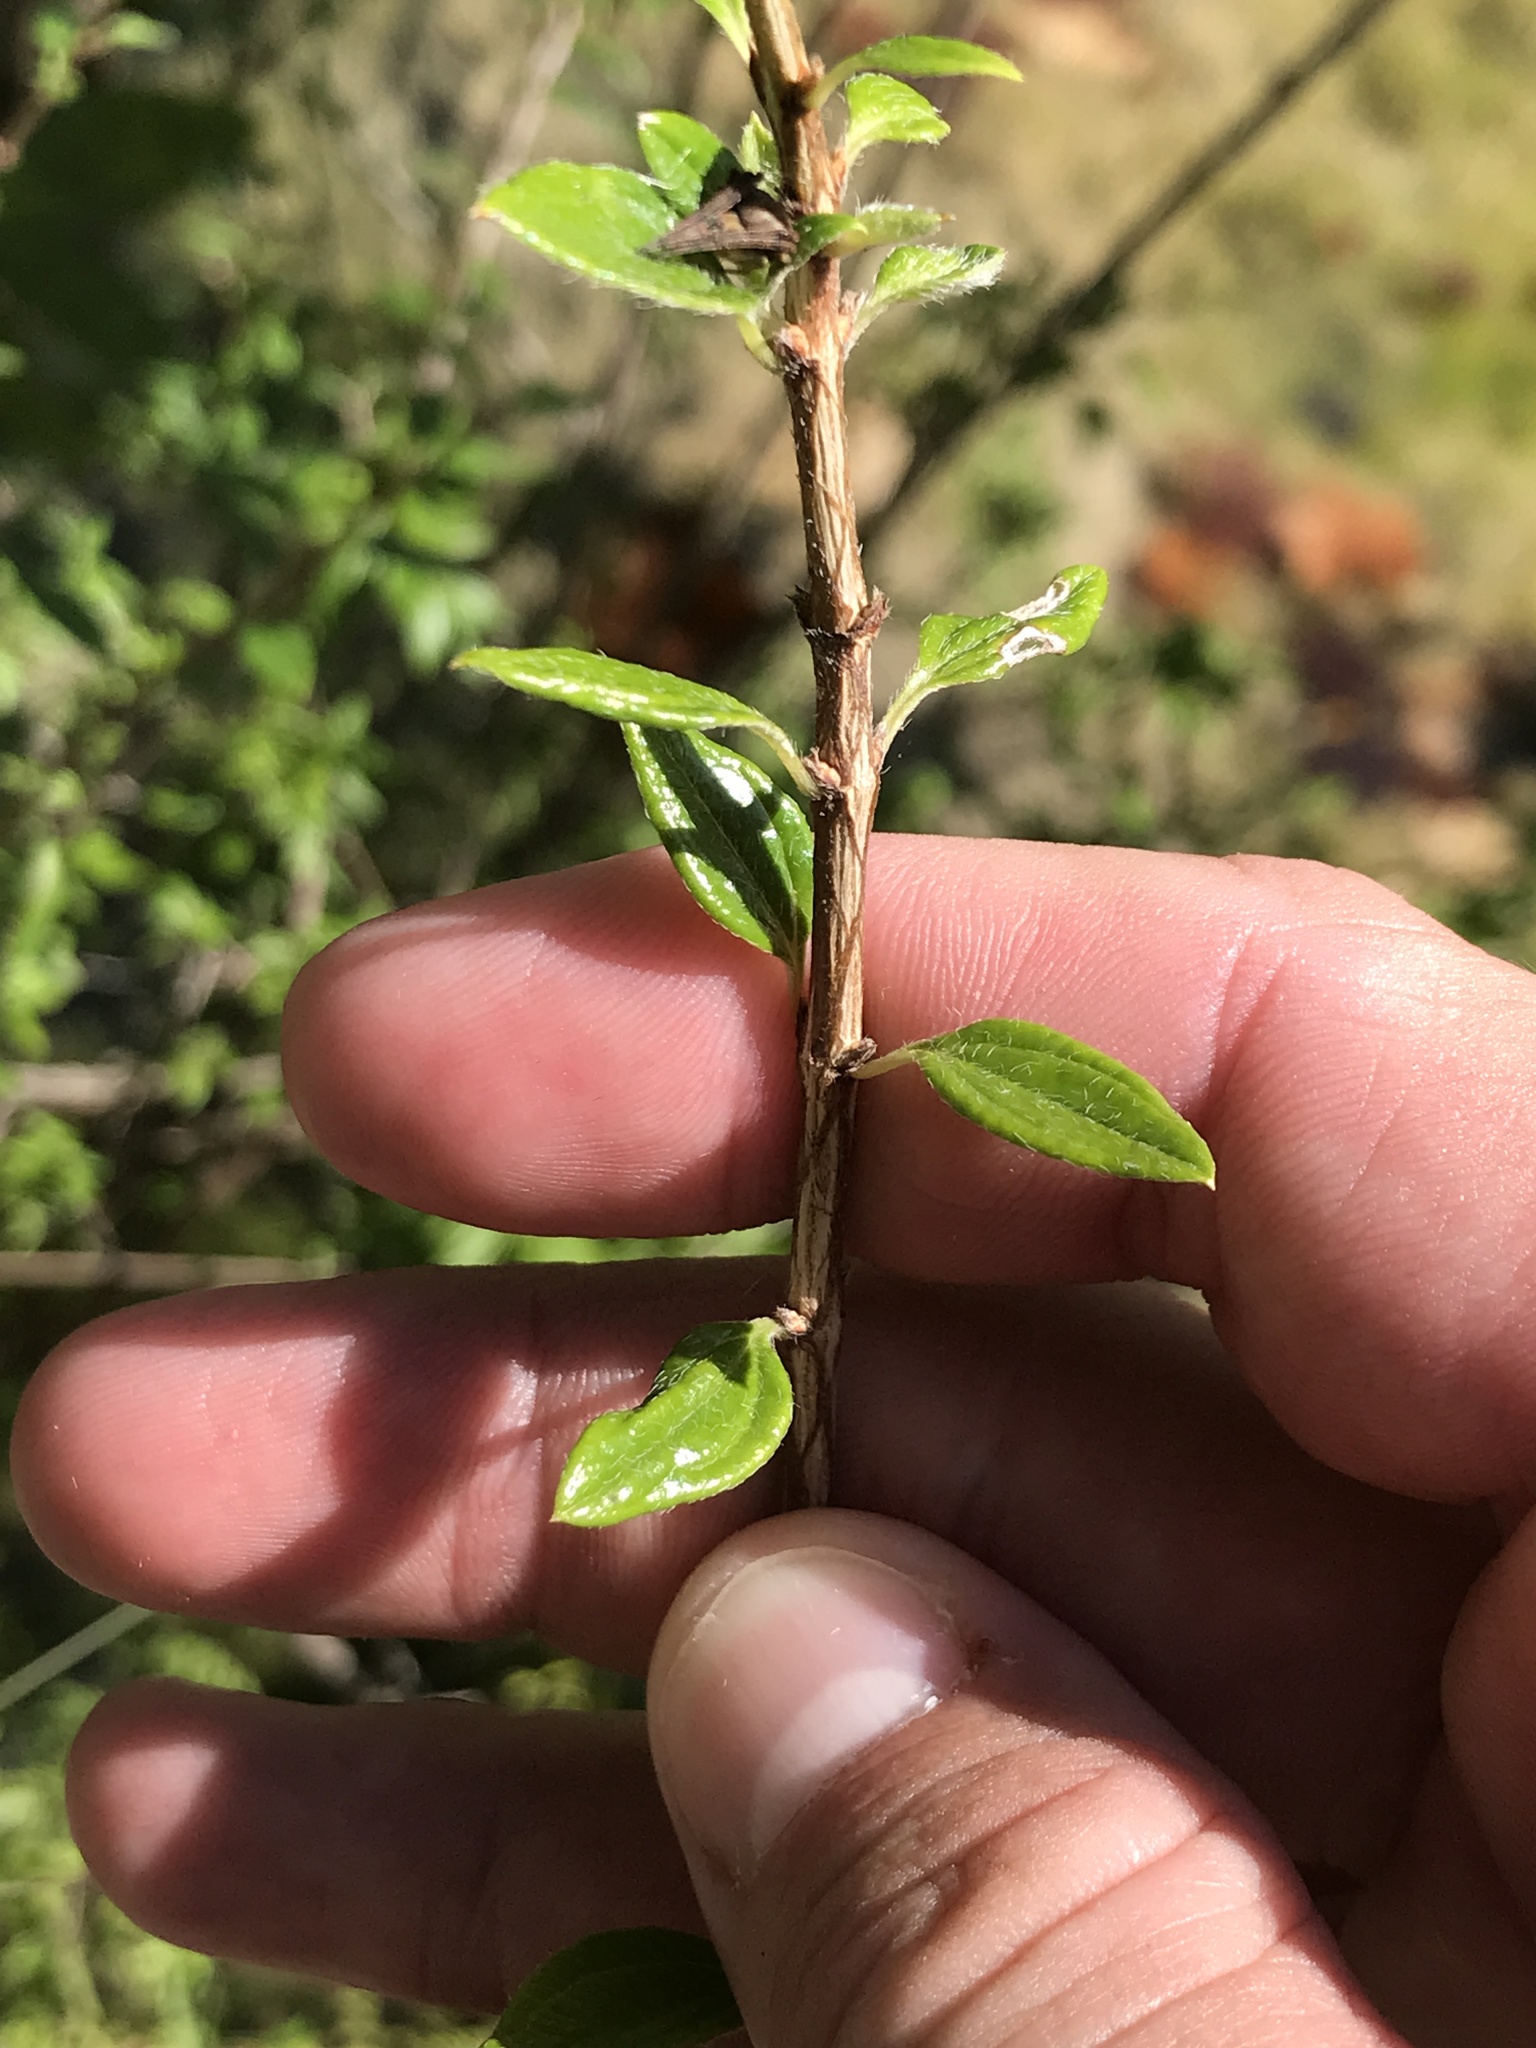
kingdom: Plantae
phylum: Tracheophyta
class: Magnoliopsida
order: Cornales
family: Hydrangeaceae
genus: Philadelphus
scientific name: Philadelphus texensis
